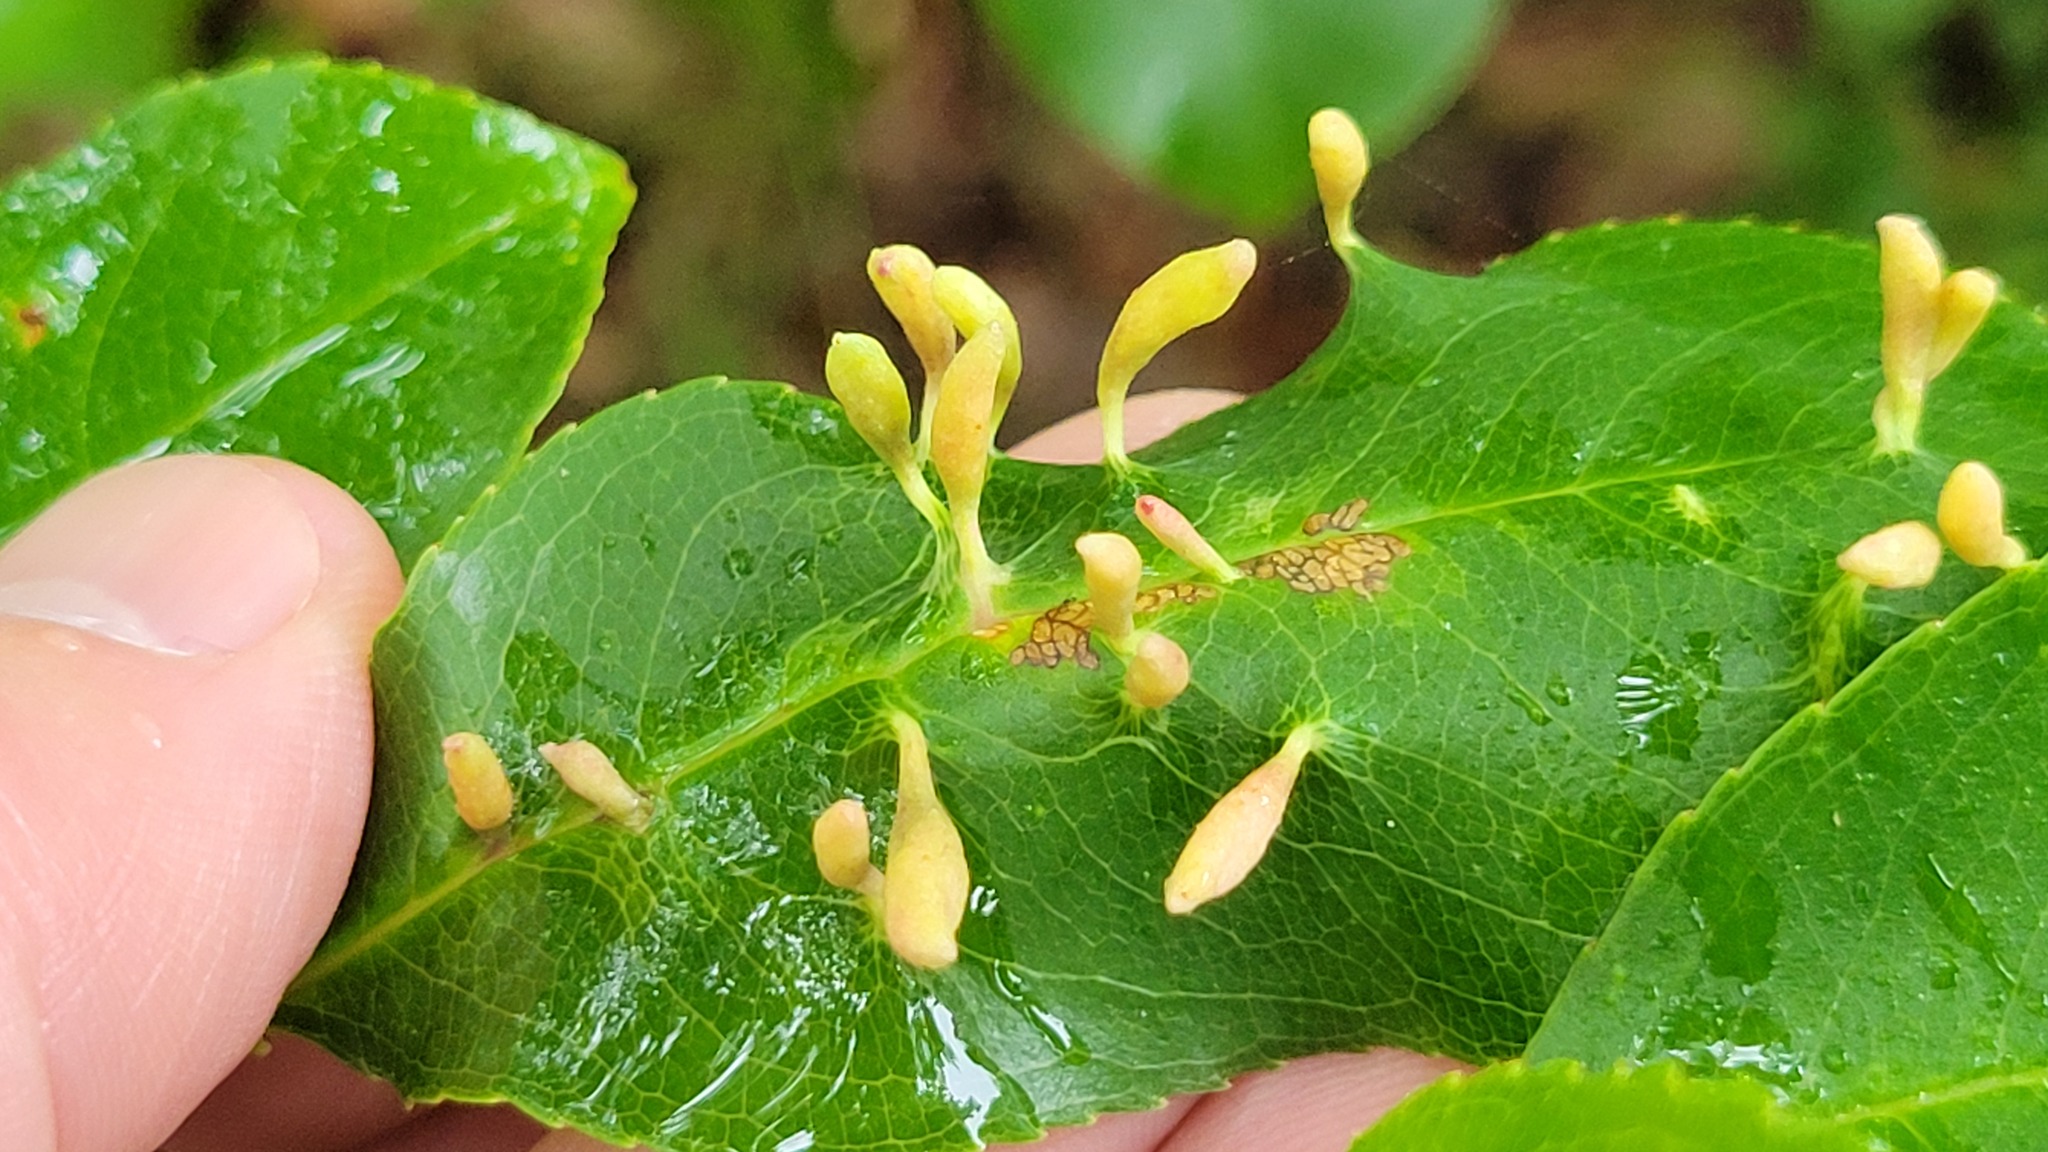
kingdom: Animalia
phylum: Arthropoda
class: Arachnida
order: Trombidiformes
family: Eriophyidae
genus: Eriophyes
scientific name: Eriophyes
